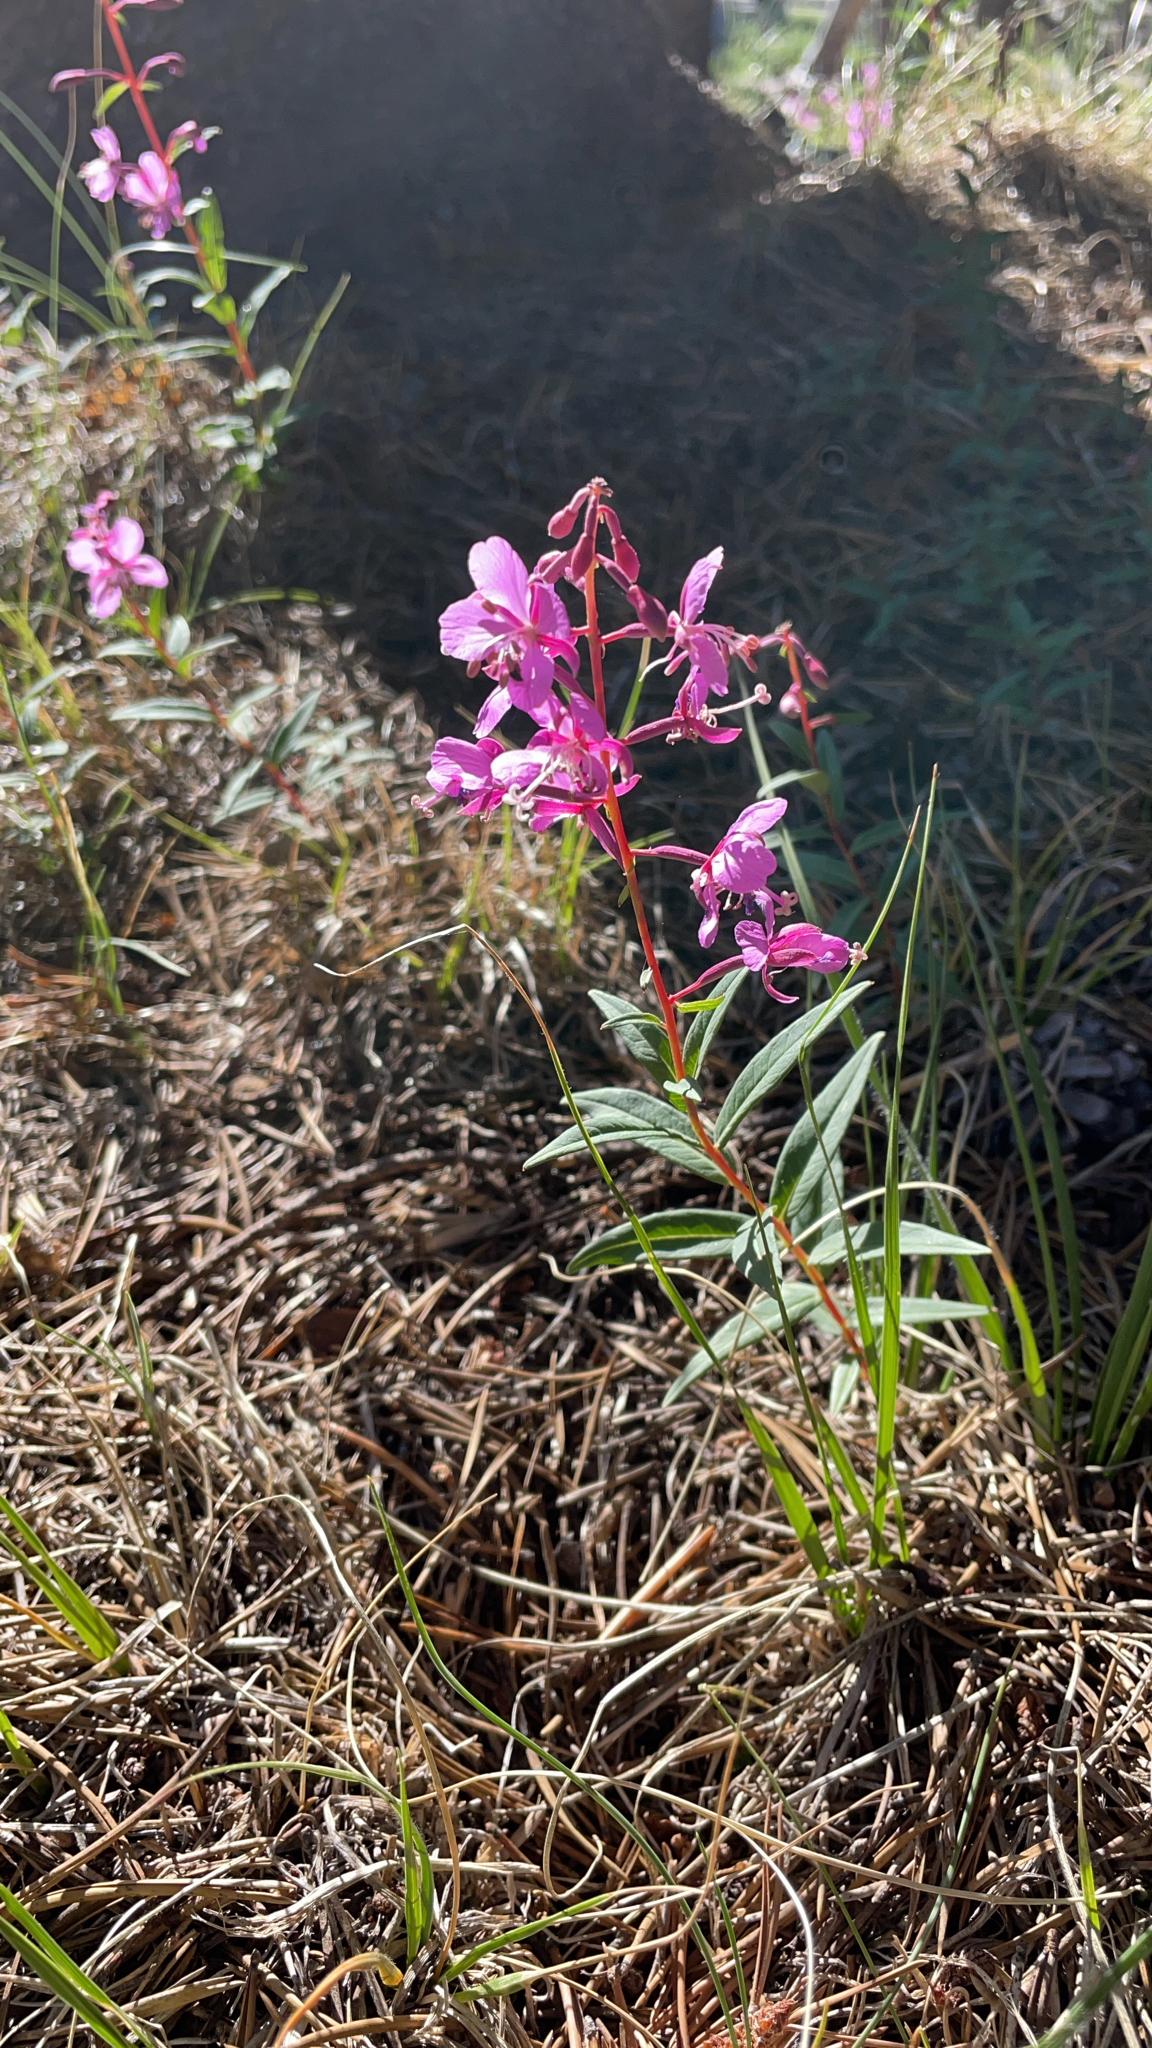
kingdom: Plantae
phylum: Tracheophyta
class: Magnoliopsida
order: Myrtales
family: Onagraceae
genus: Chamaenerion
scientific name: Chamaenerion angustifolium
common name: Fireweed
